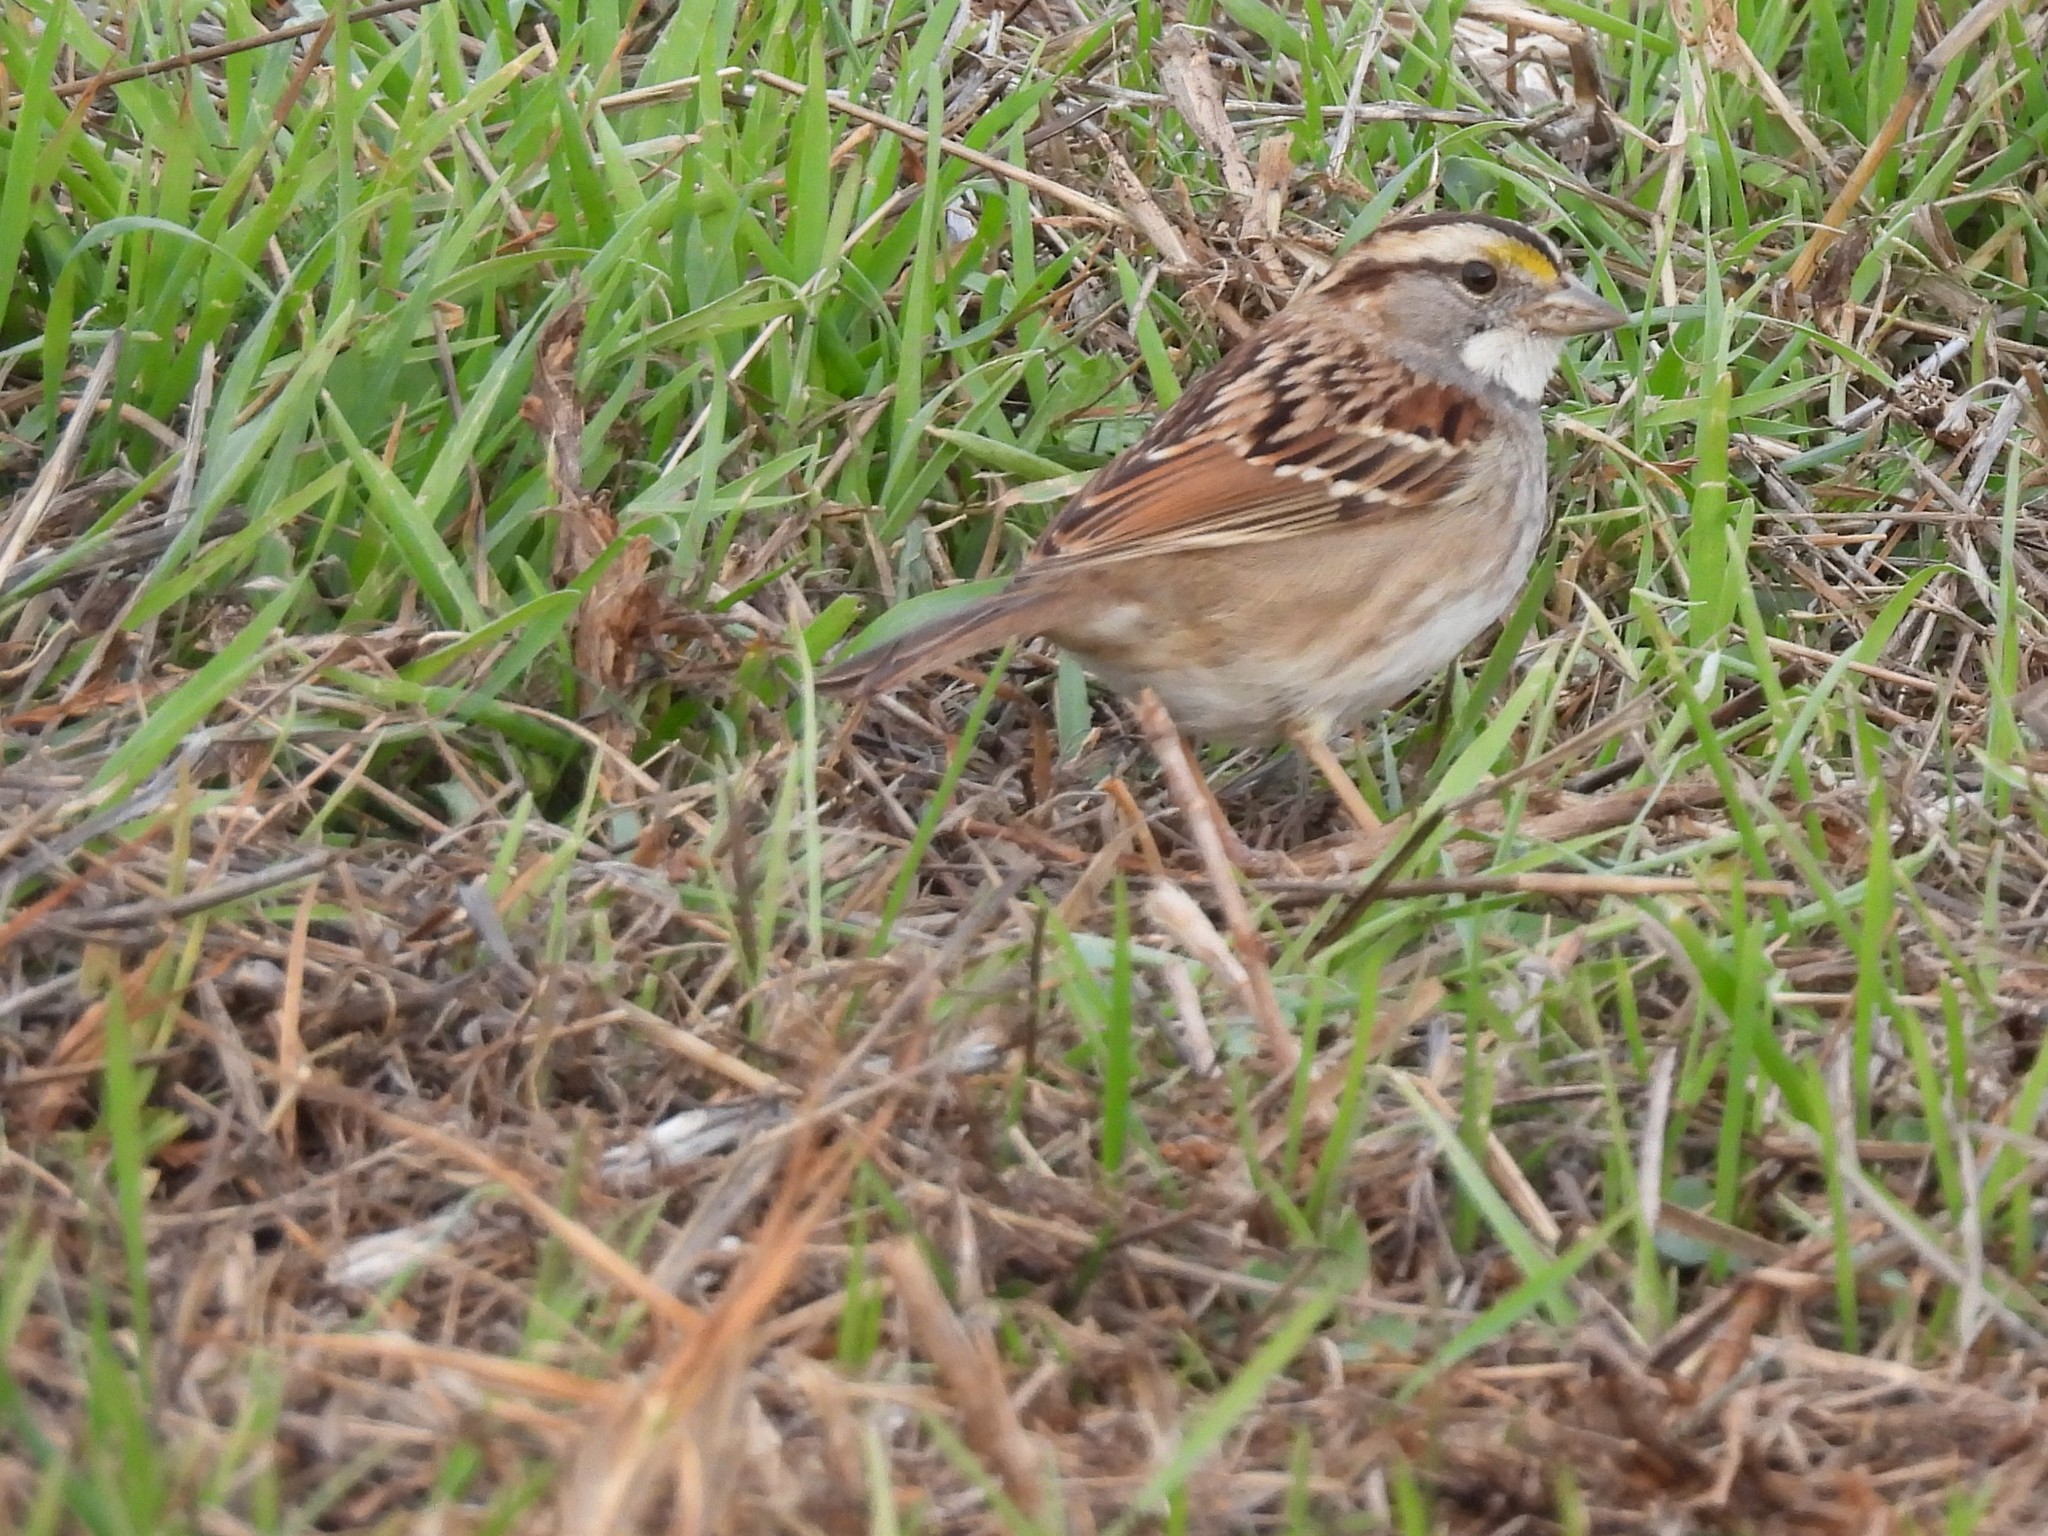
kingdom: Animalia
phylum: Chordata
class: Aves
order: Passeriformes
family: Passerellidae
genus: Zonotrichia
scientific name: Zonotrichia albicollis
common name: White-throated sparrow
